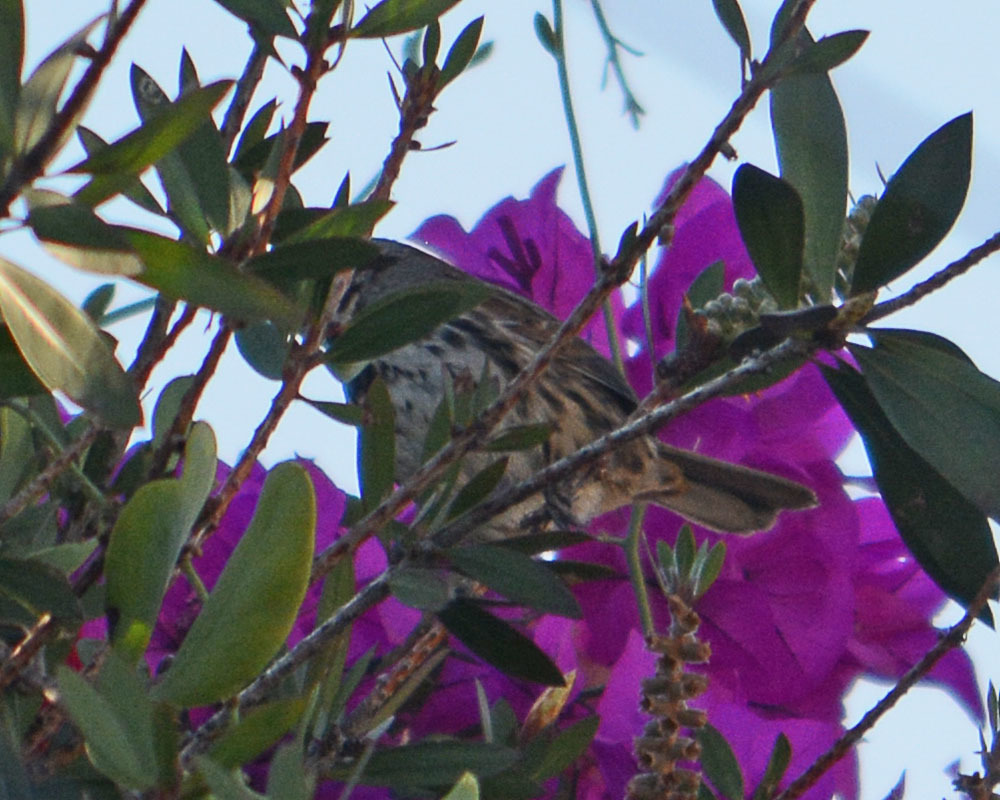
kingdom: Animalia
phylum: Chordata
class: Aves
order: Passeriformes
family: Passerellidae
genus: Melospiza
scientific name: Melospiza melodia
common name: Song sparrow
